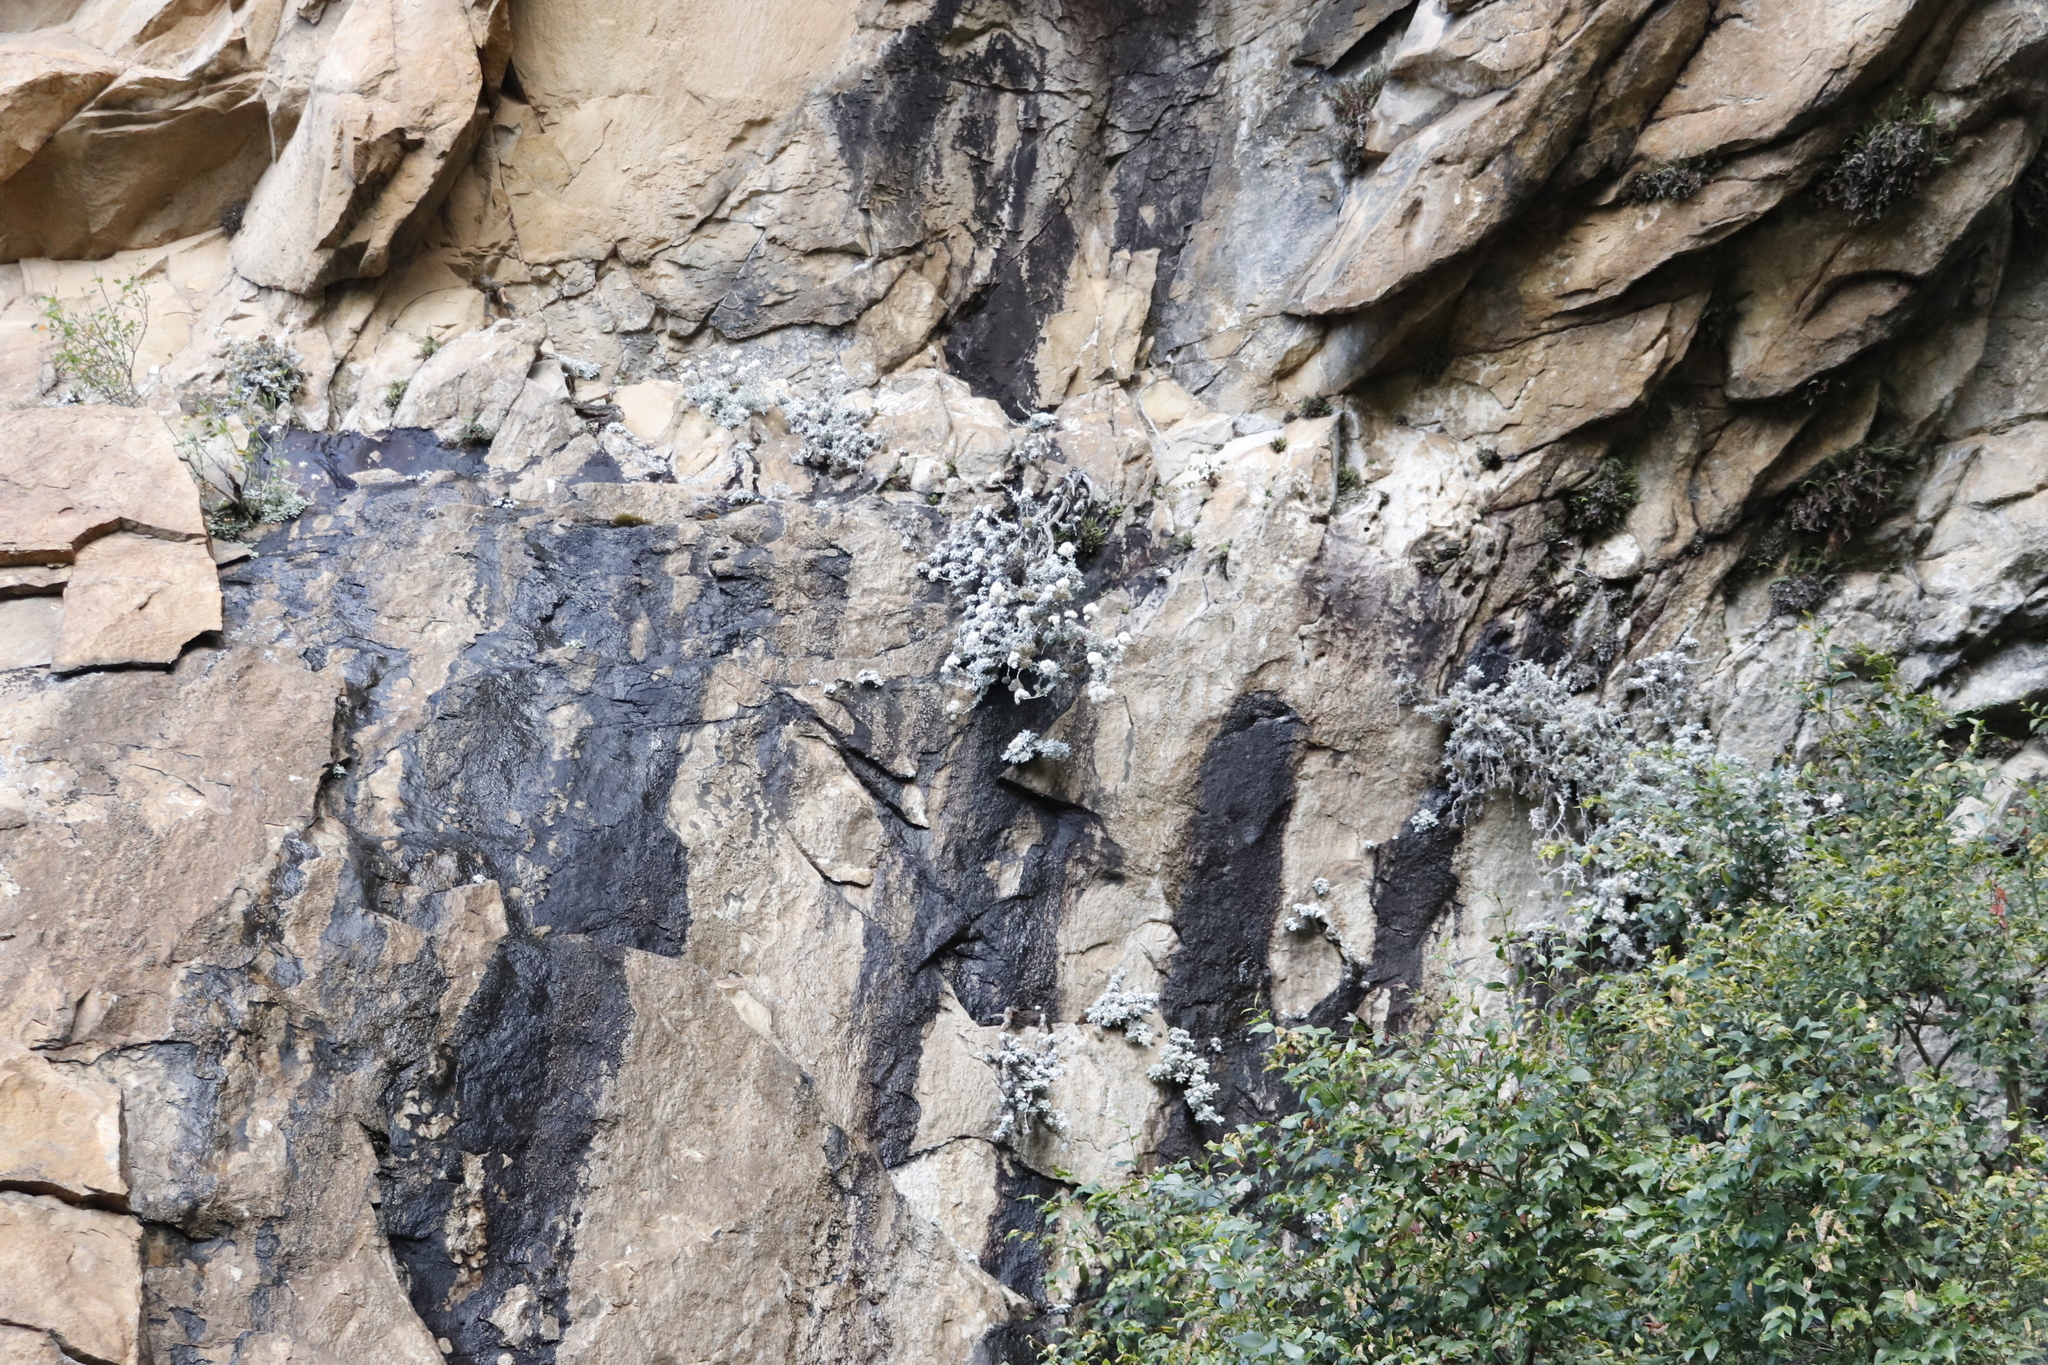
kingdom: Plantae
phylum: Tracheophyta
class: Magnoliopsida
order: Asterales
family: Asteraceae
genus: Helichrysum
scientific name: Helichrysum sutherlandii
